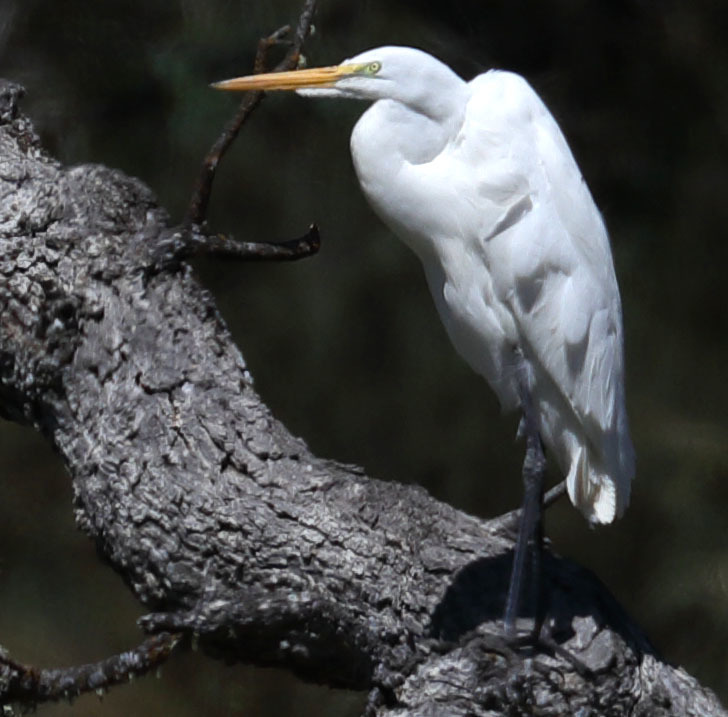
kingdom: Animalia
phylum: Chordata
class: Aves
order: Pelecaniformes
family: Ardeidae
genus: Ardea
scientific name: Ardea alba
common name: Great egret
